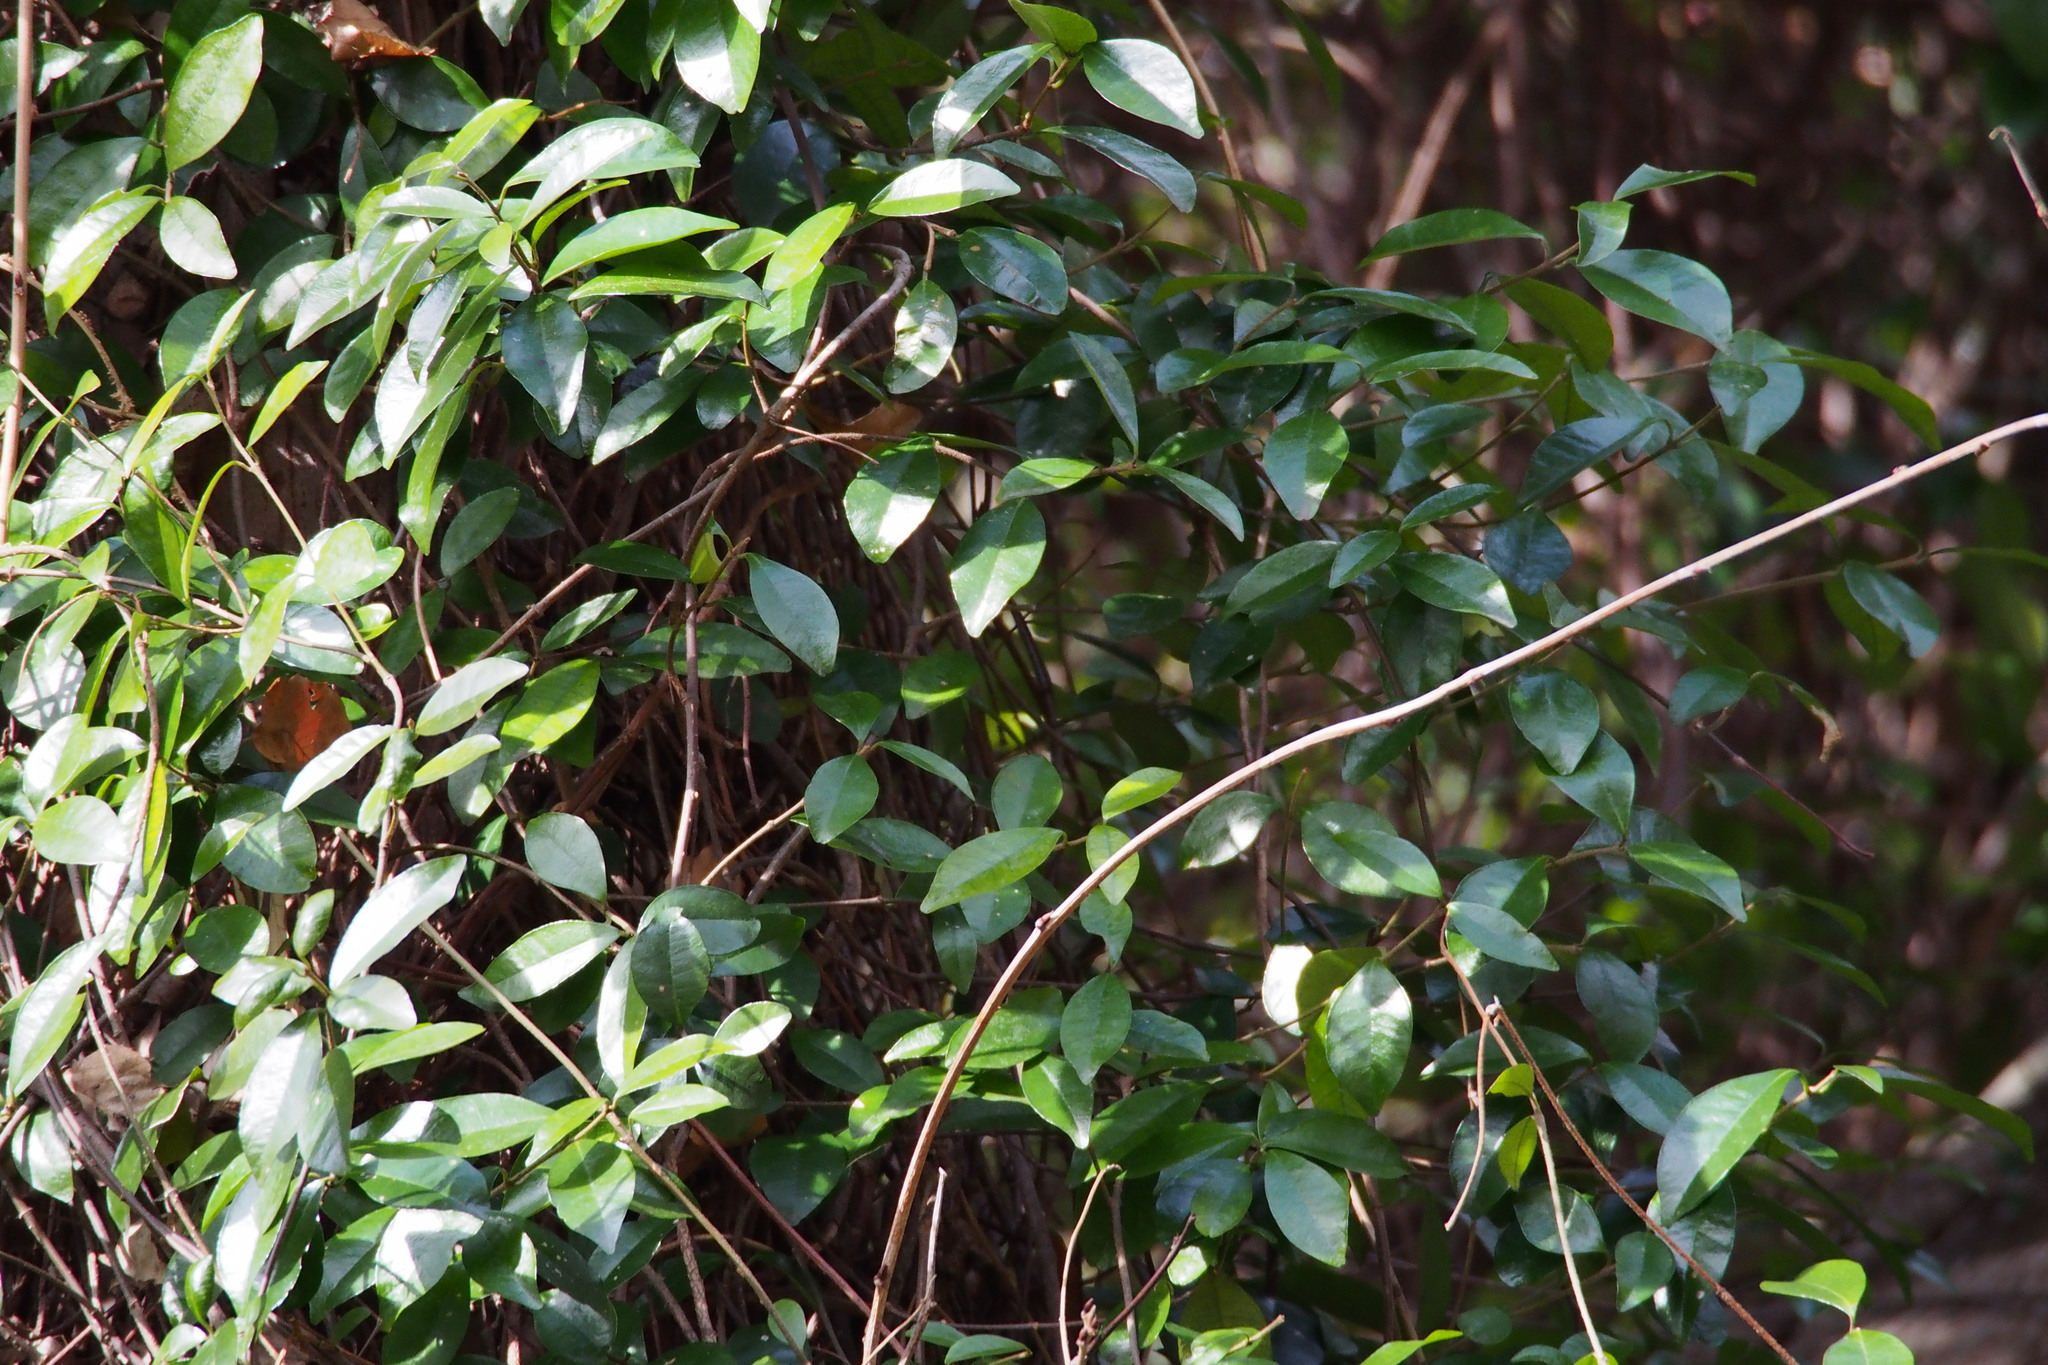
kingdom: Plantae
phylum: Tracheophyta
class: Magnoliopsida
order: Gentianales
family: Apocynaceae
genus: Trachelospermum
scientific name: Trachelospermum asiaticum
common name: Asiatic jasmine
